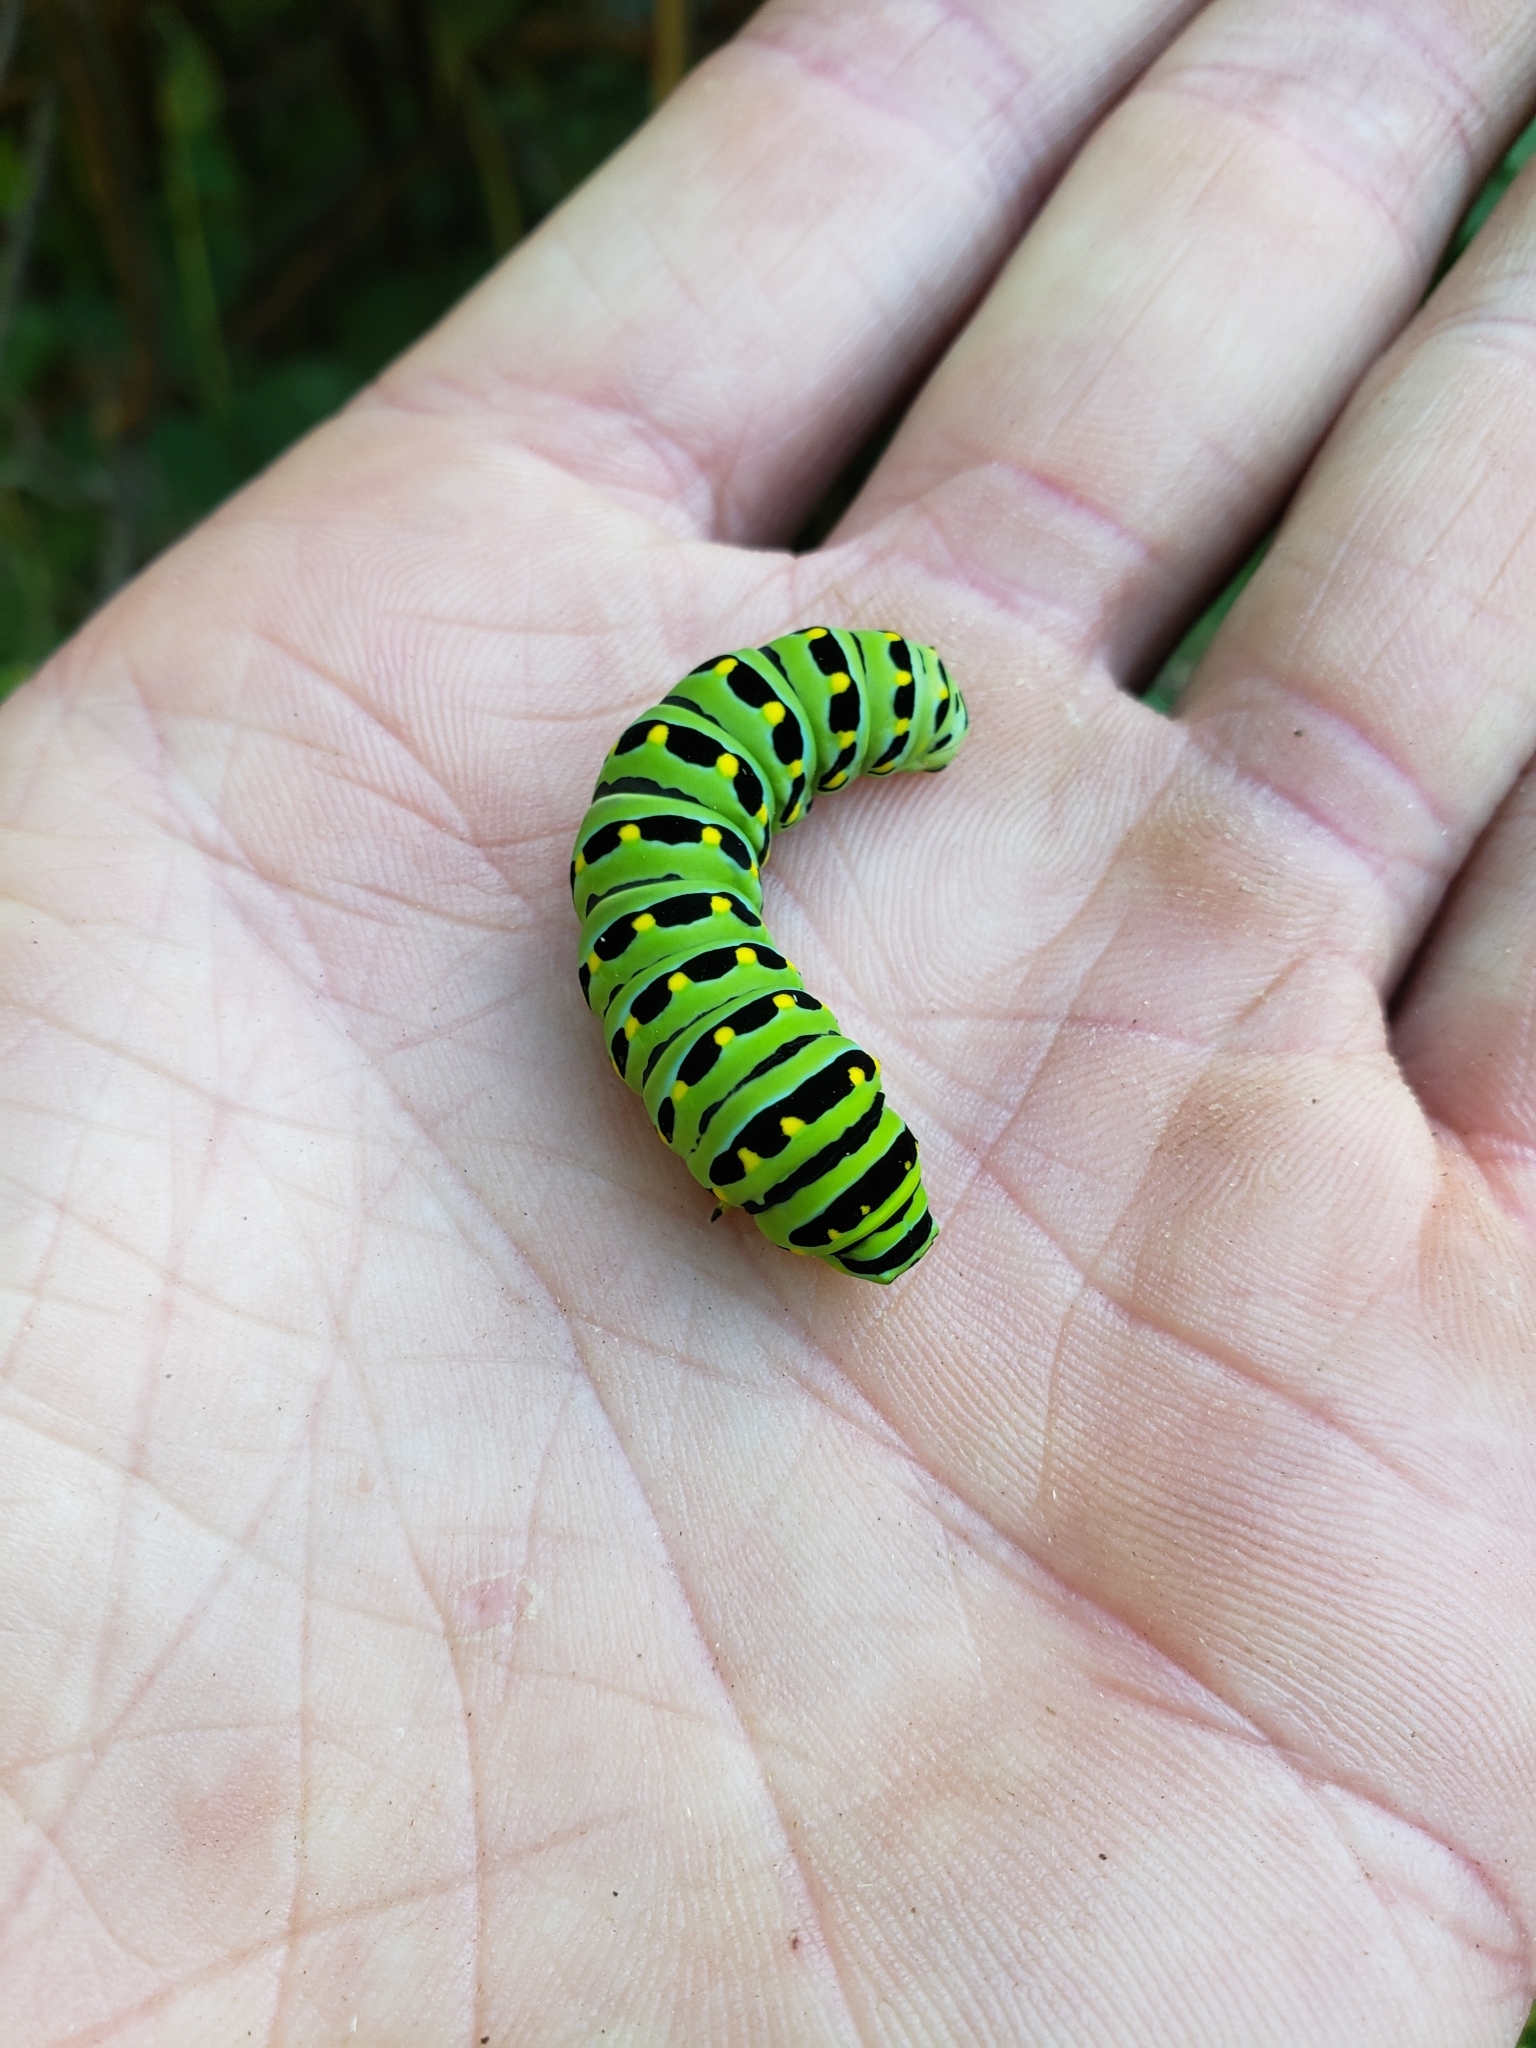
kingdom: Animalia
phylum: Arthropoda
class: Insecta
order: Lepidoptera
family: Papilionidae
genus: Papilio
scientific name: Papilio zelicaon
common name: Anise swallowtail
